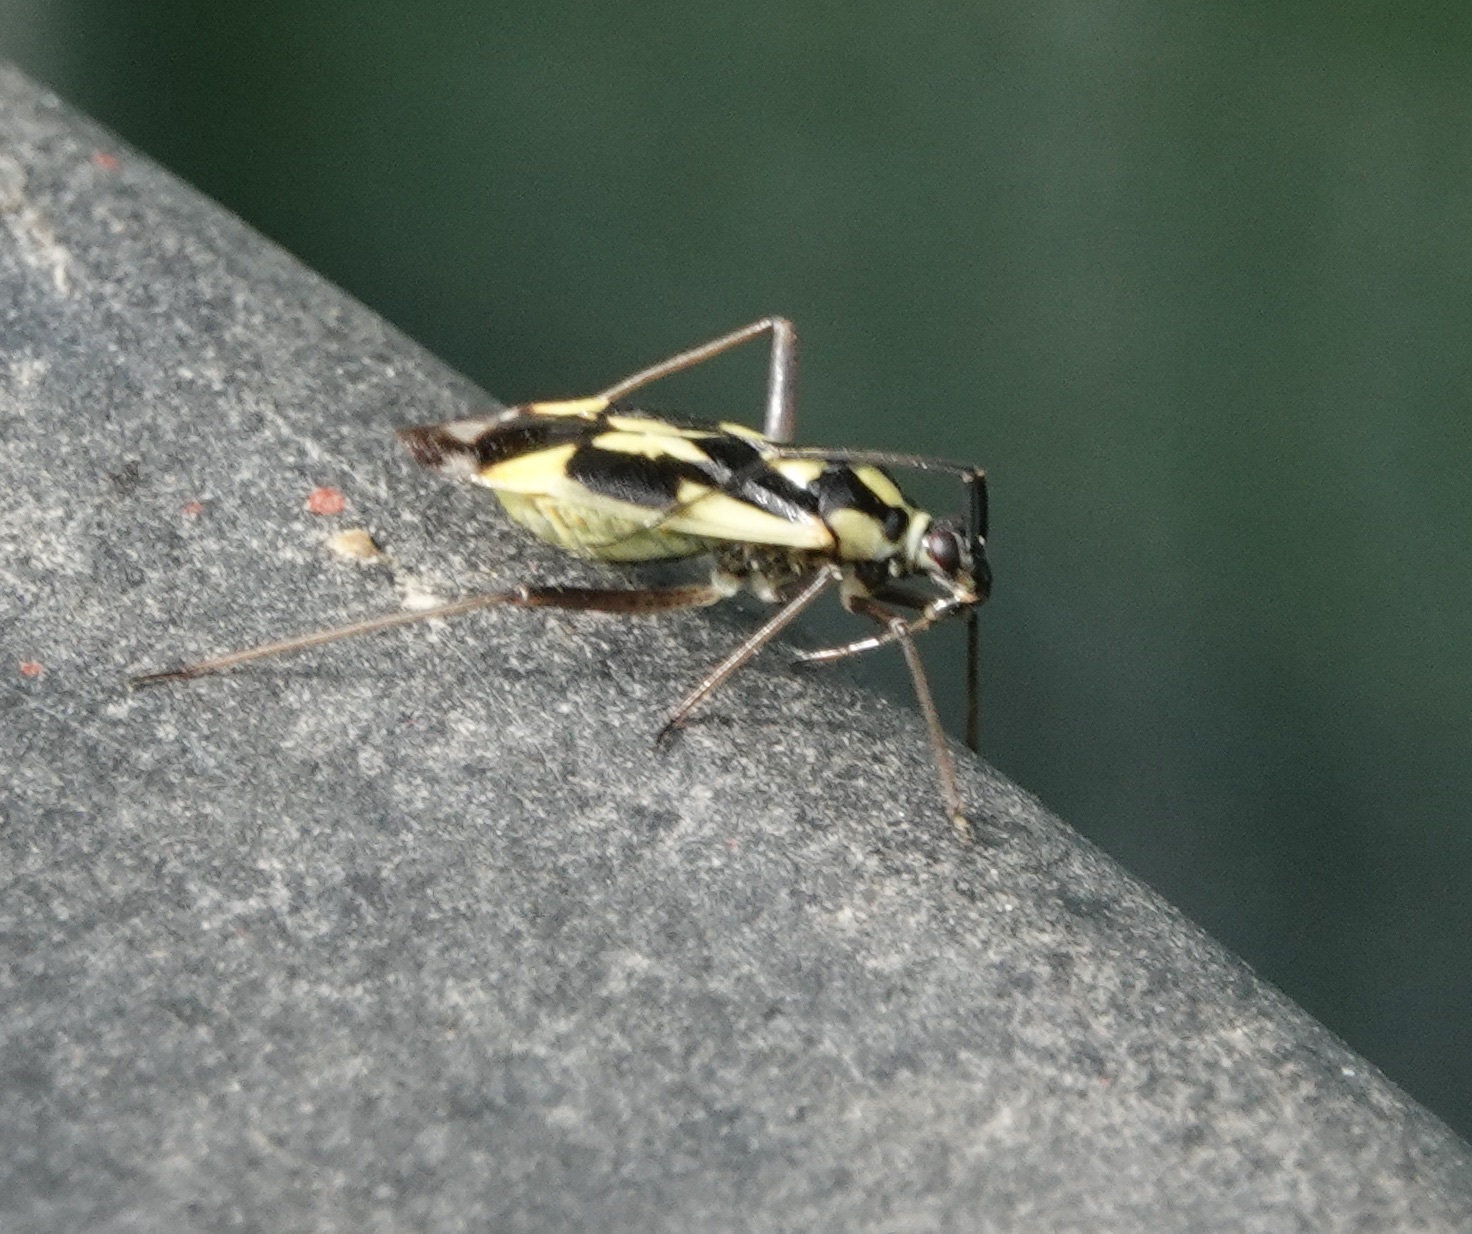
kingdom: Animalia
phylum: Arthropoda
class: Insecta
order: Hemiptera
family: Miridae
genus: Grypocoris
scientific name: Grypocoris stysi
